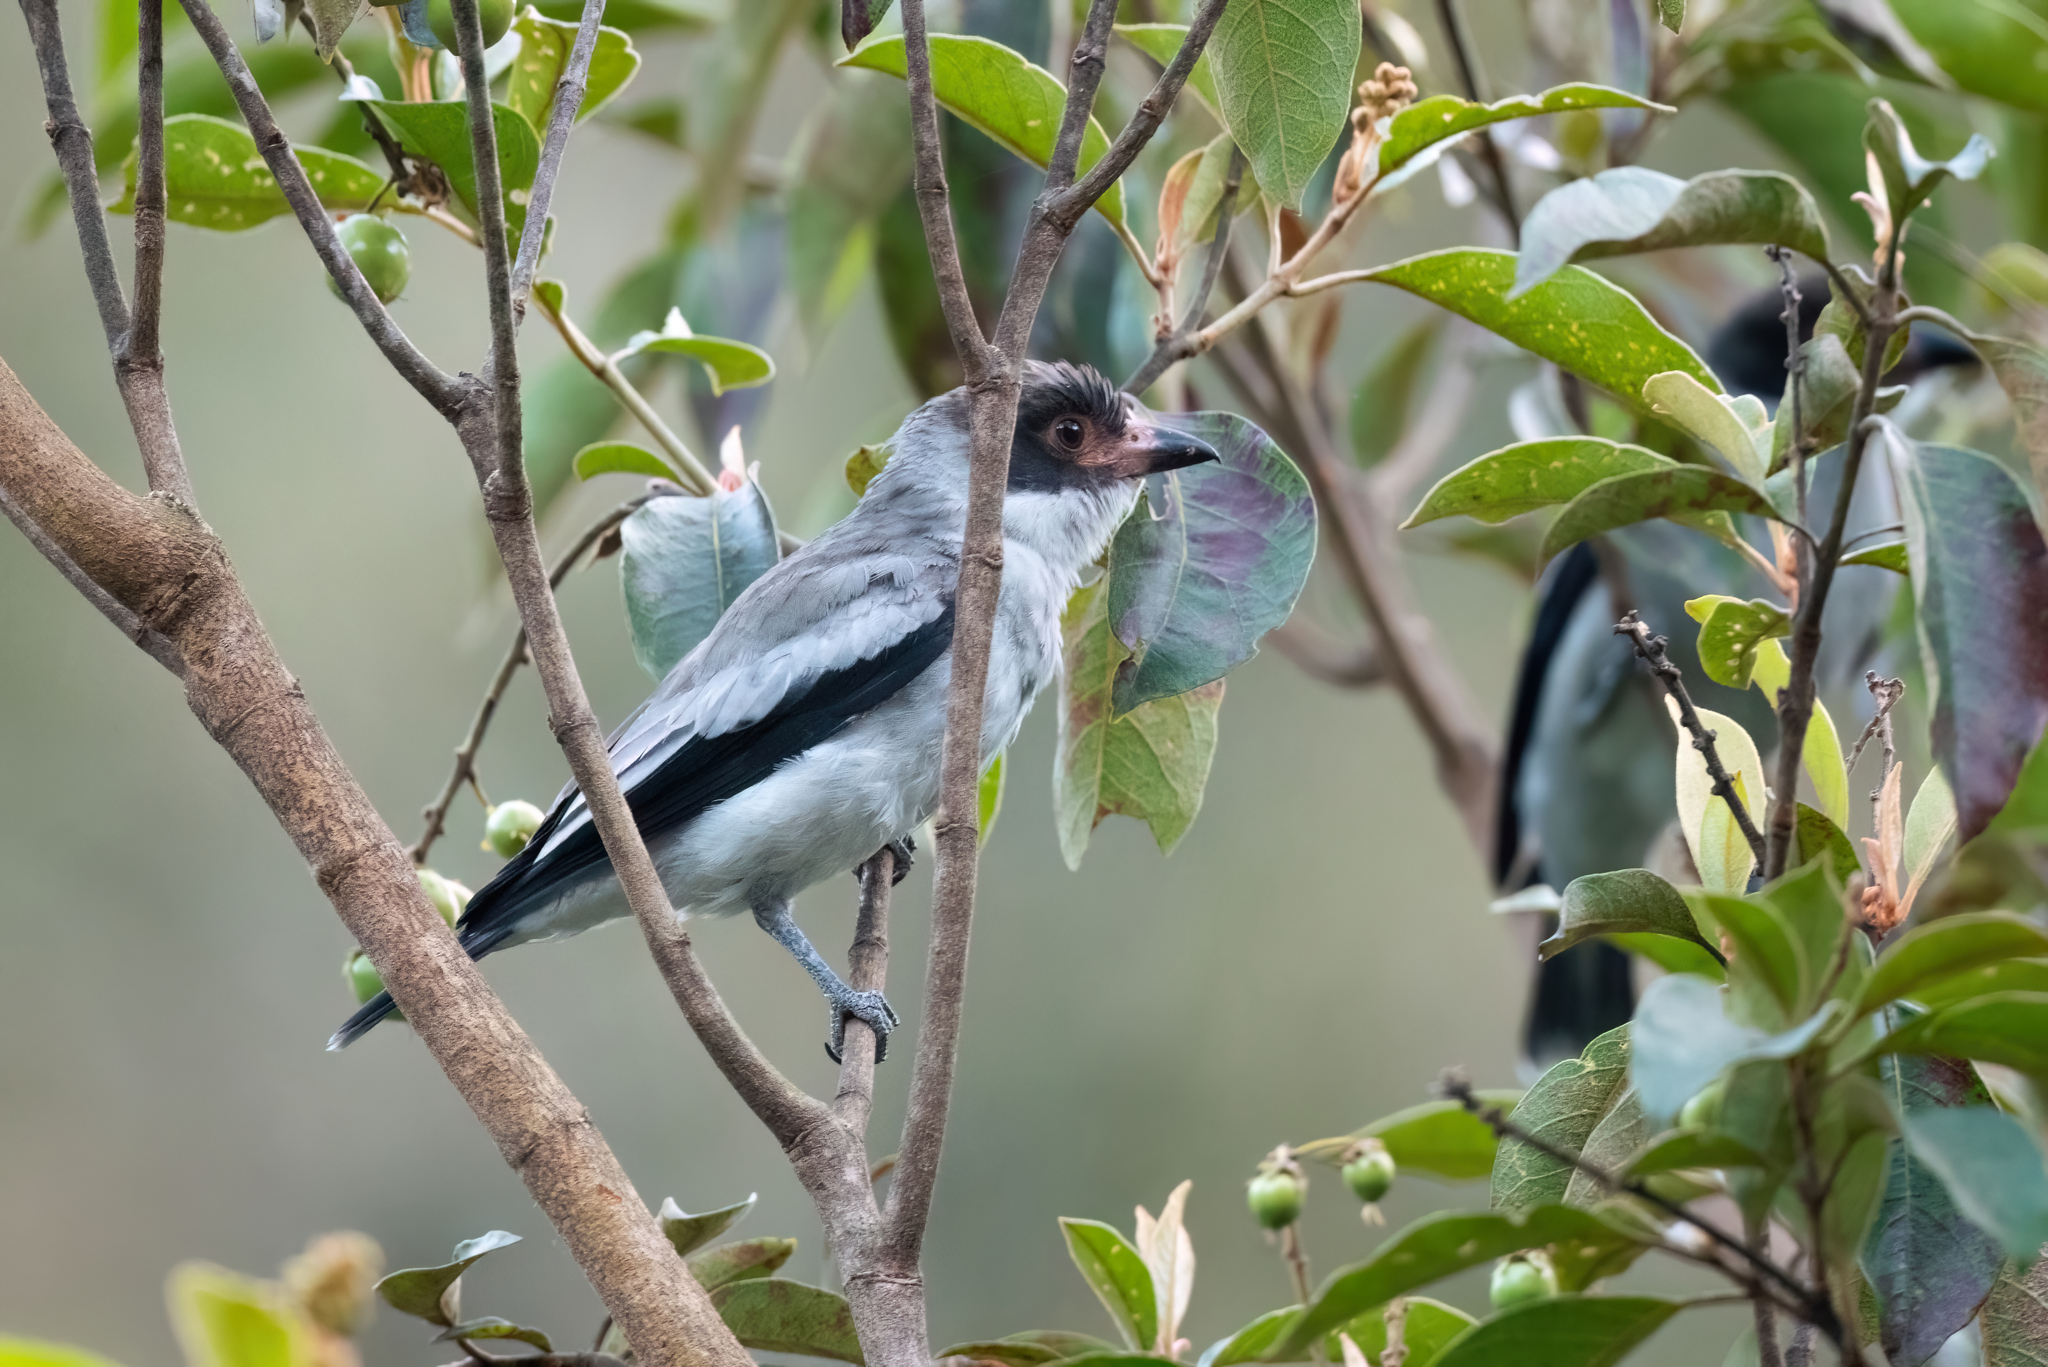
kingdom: Animalia
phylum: Chordata
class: Aves
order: Passeriformes
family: Cotingidae
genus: Tityra
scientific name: Tityra semifasciata
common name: Masked tityra
